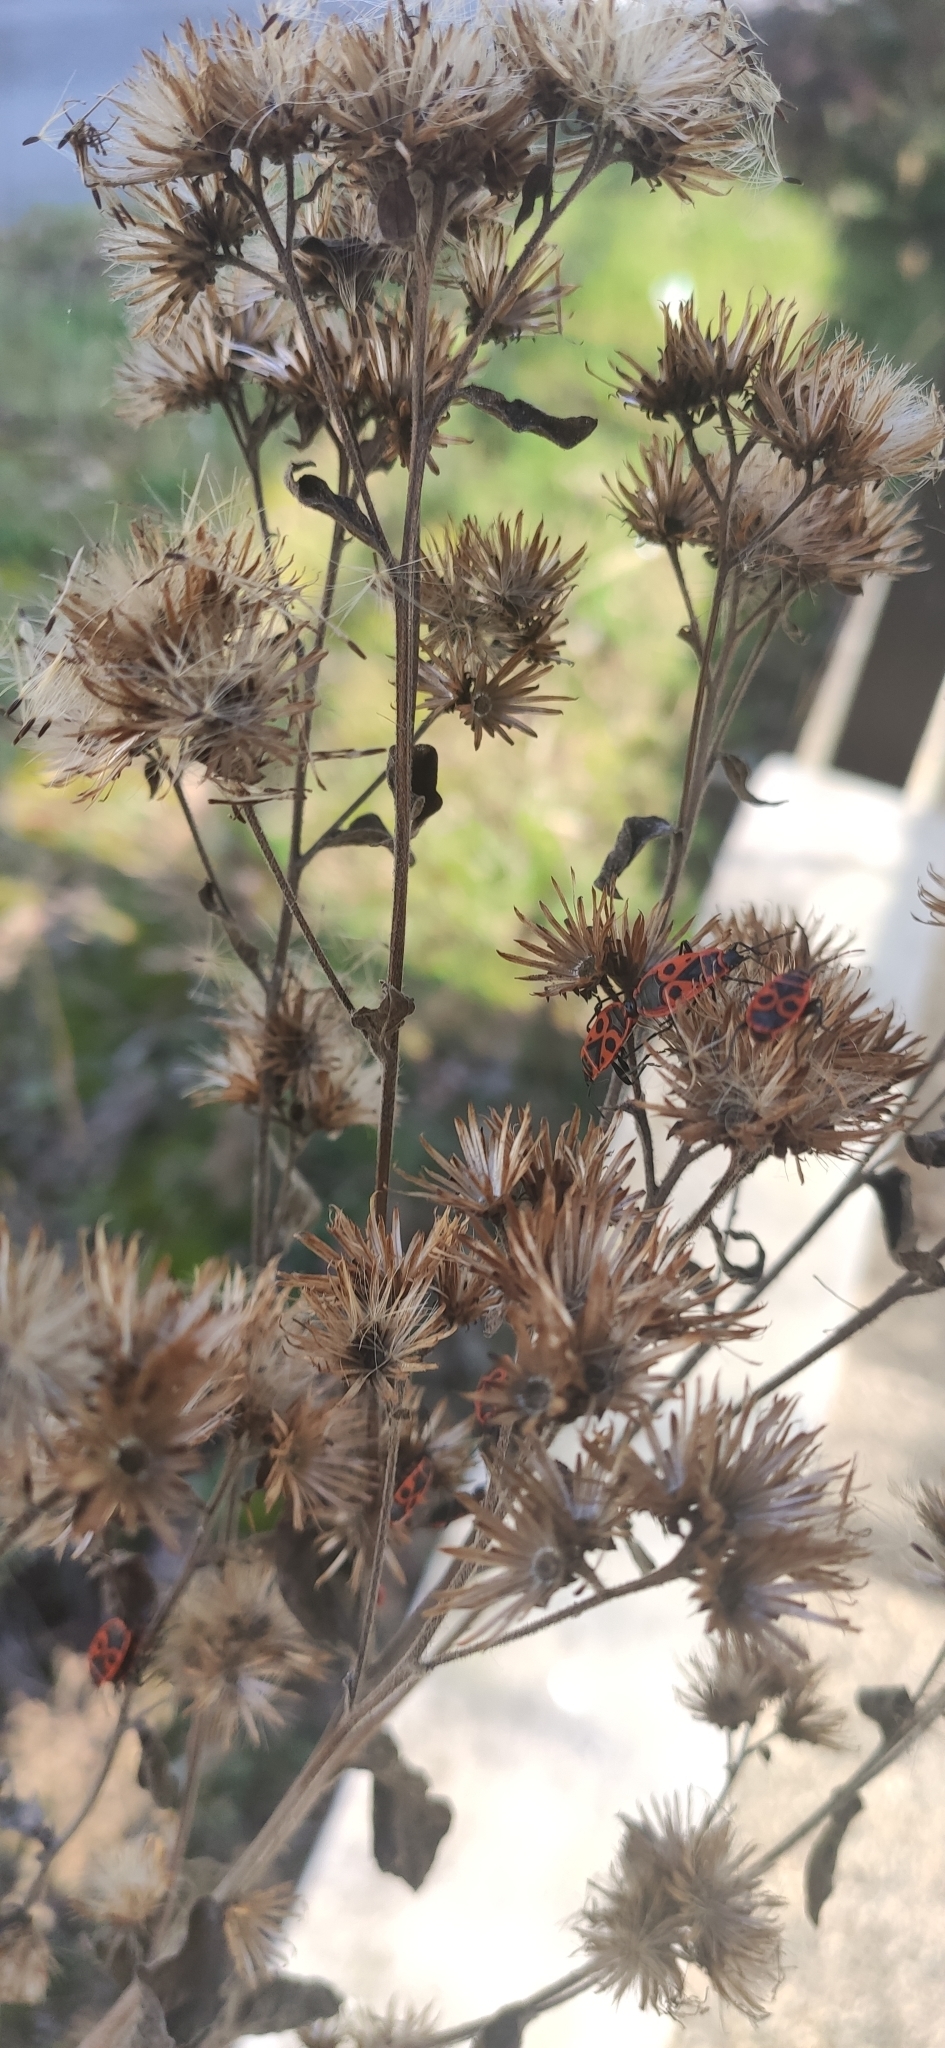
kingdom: Animalia
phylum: Arthropoda
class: Insecta
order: Hemiptera
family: Pyrrhocoridae
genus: Pyrrhocoris
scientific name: Pyrrhocoris apterus
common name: Firebug
